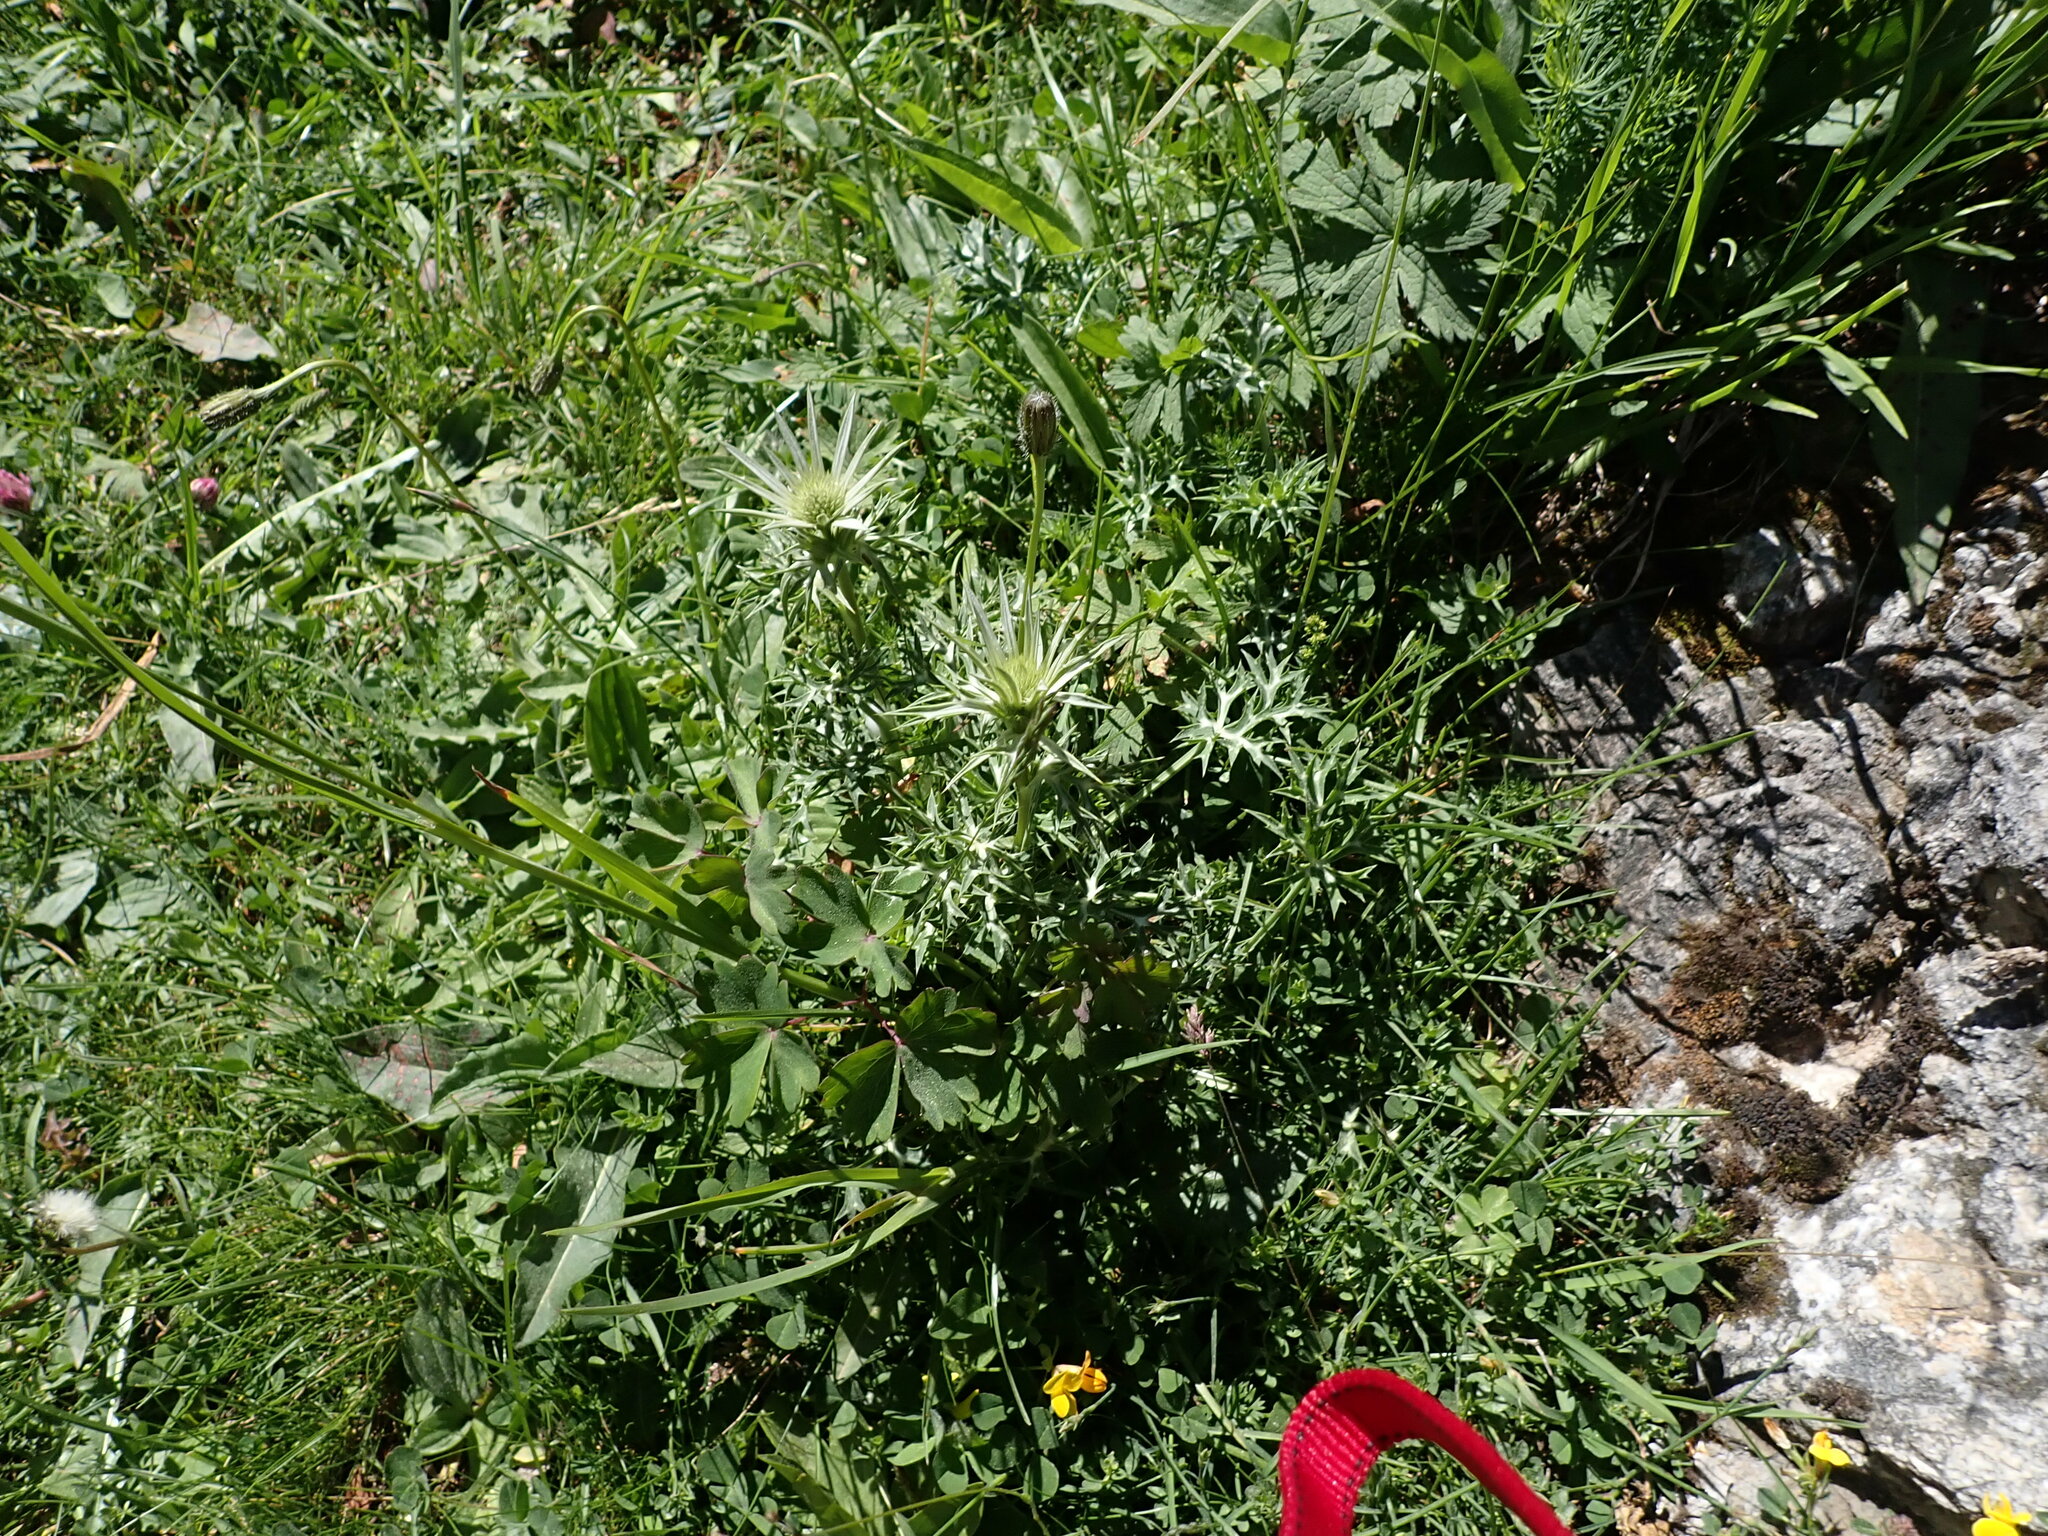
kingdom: Plantae
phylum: Tracheophyta
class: Magnoliopsida
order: Apiales
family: Apiaceae
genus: Eryngium
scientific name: Eryngium bourgatii
